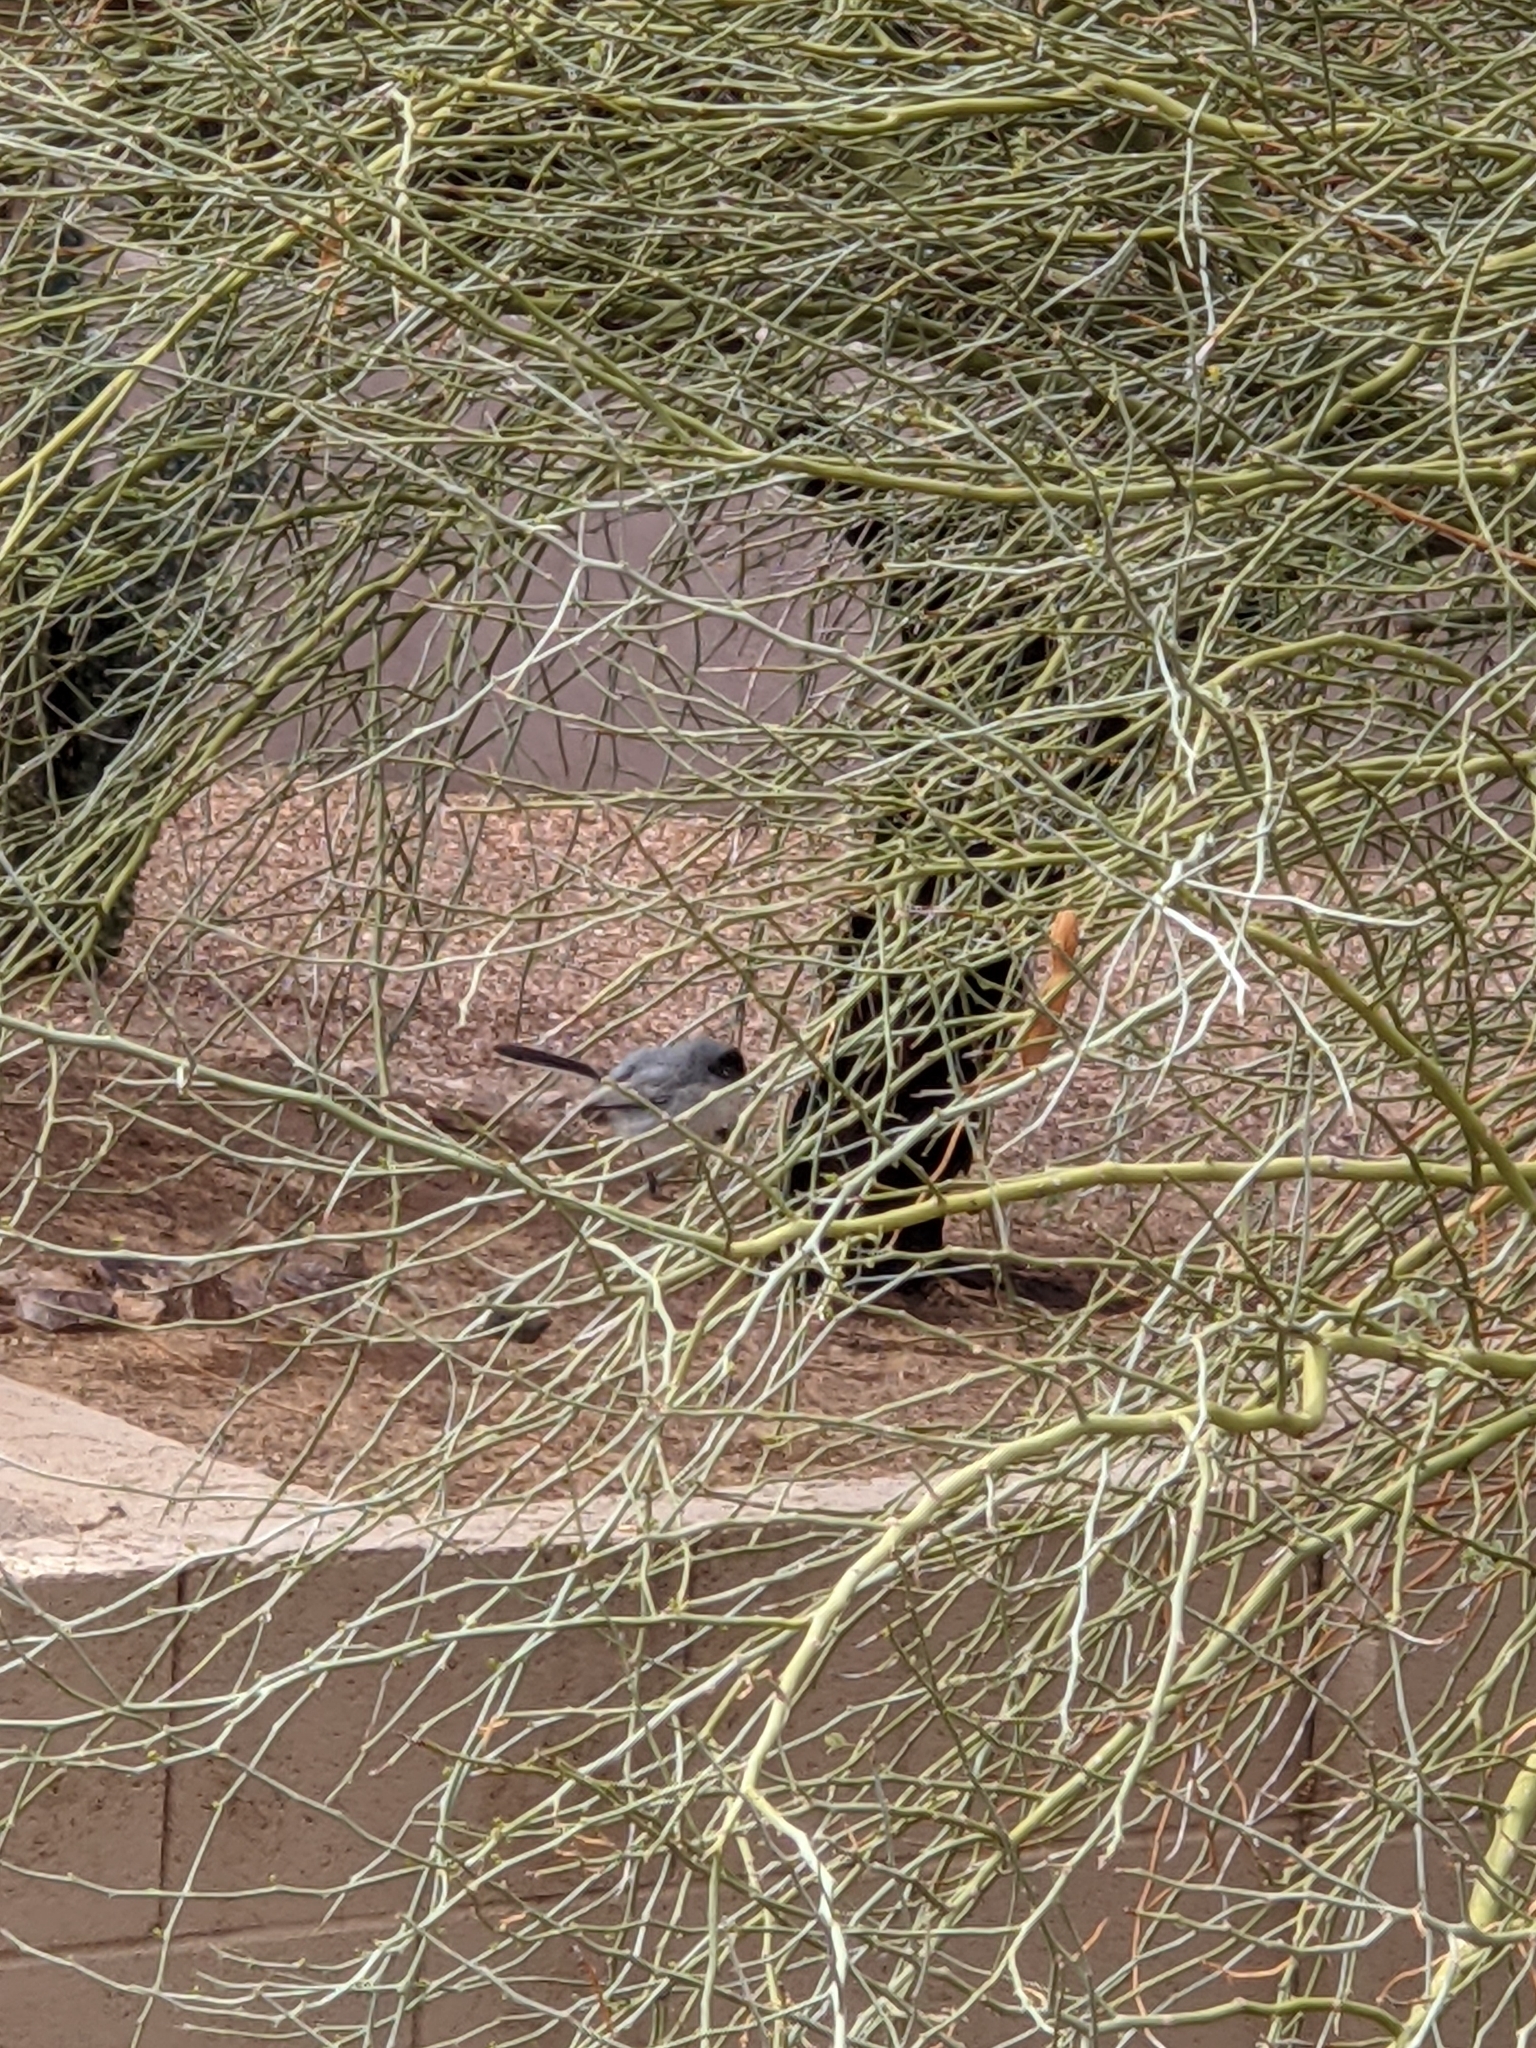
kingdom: Animalia
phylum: Chordata
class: Aves
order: Passeriformes
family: Polioptilidae
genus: Polioptila
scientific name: Polioptila melanura
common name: Black-tailed gnatcatcher
